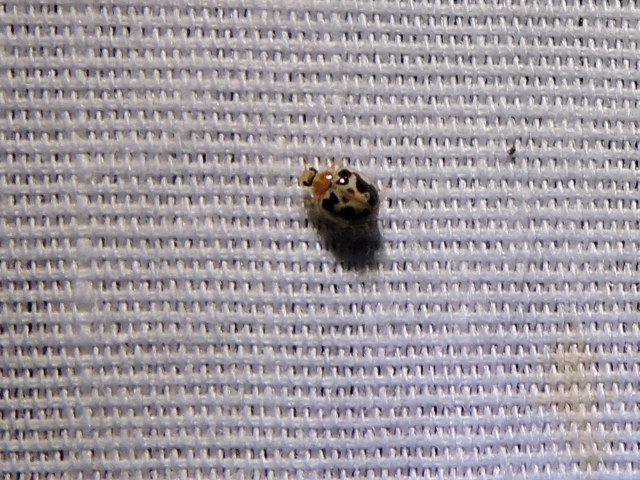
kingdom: Animalia
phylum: Arthropoda
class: Insecta
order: Coleoptera
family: Coccinellidae
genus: Psyllobora
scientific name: Psyllobora renifer
